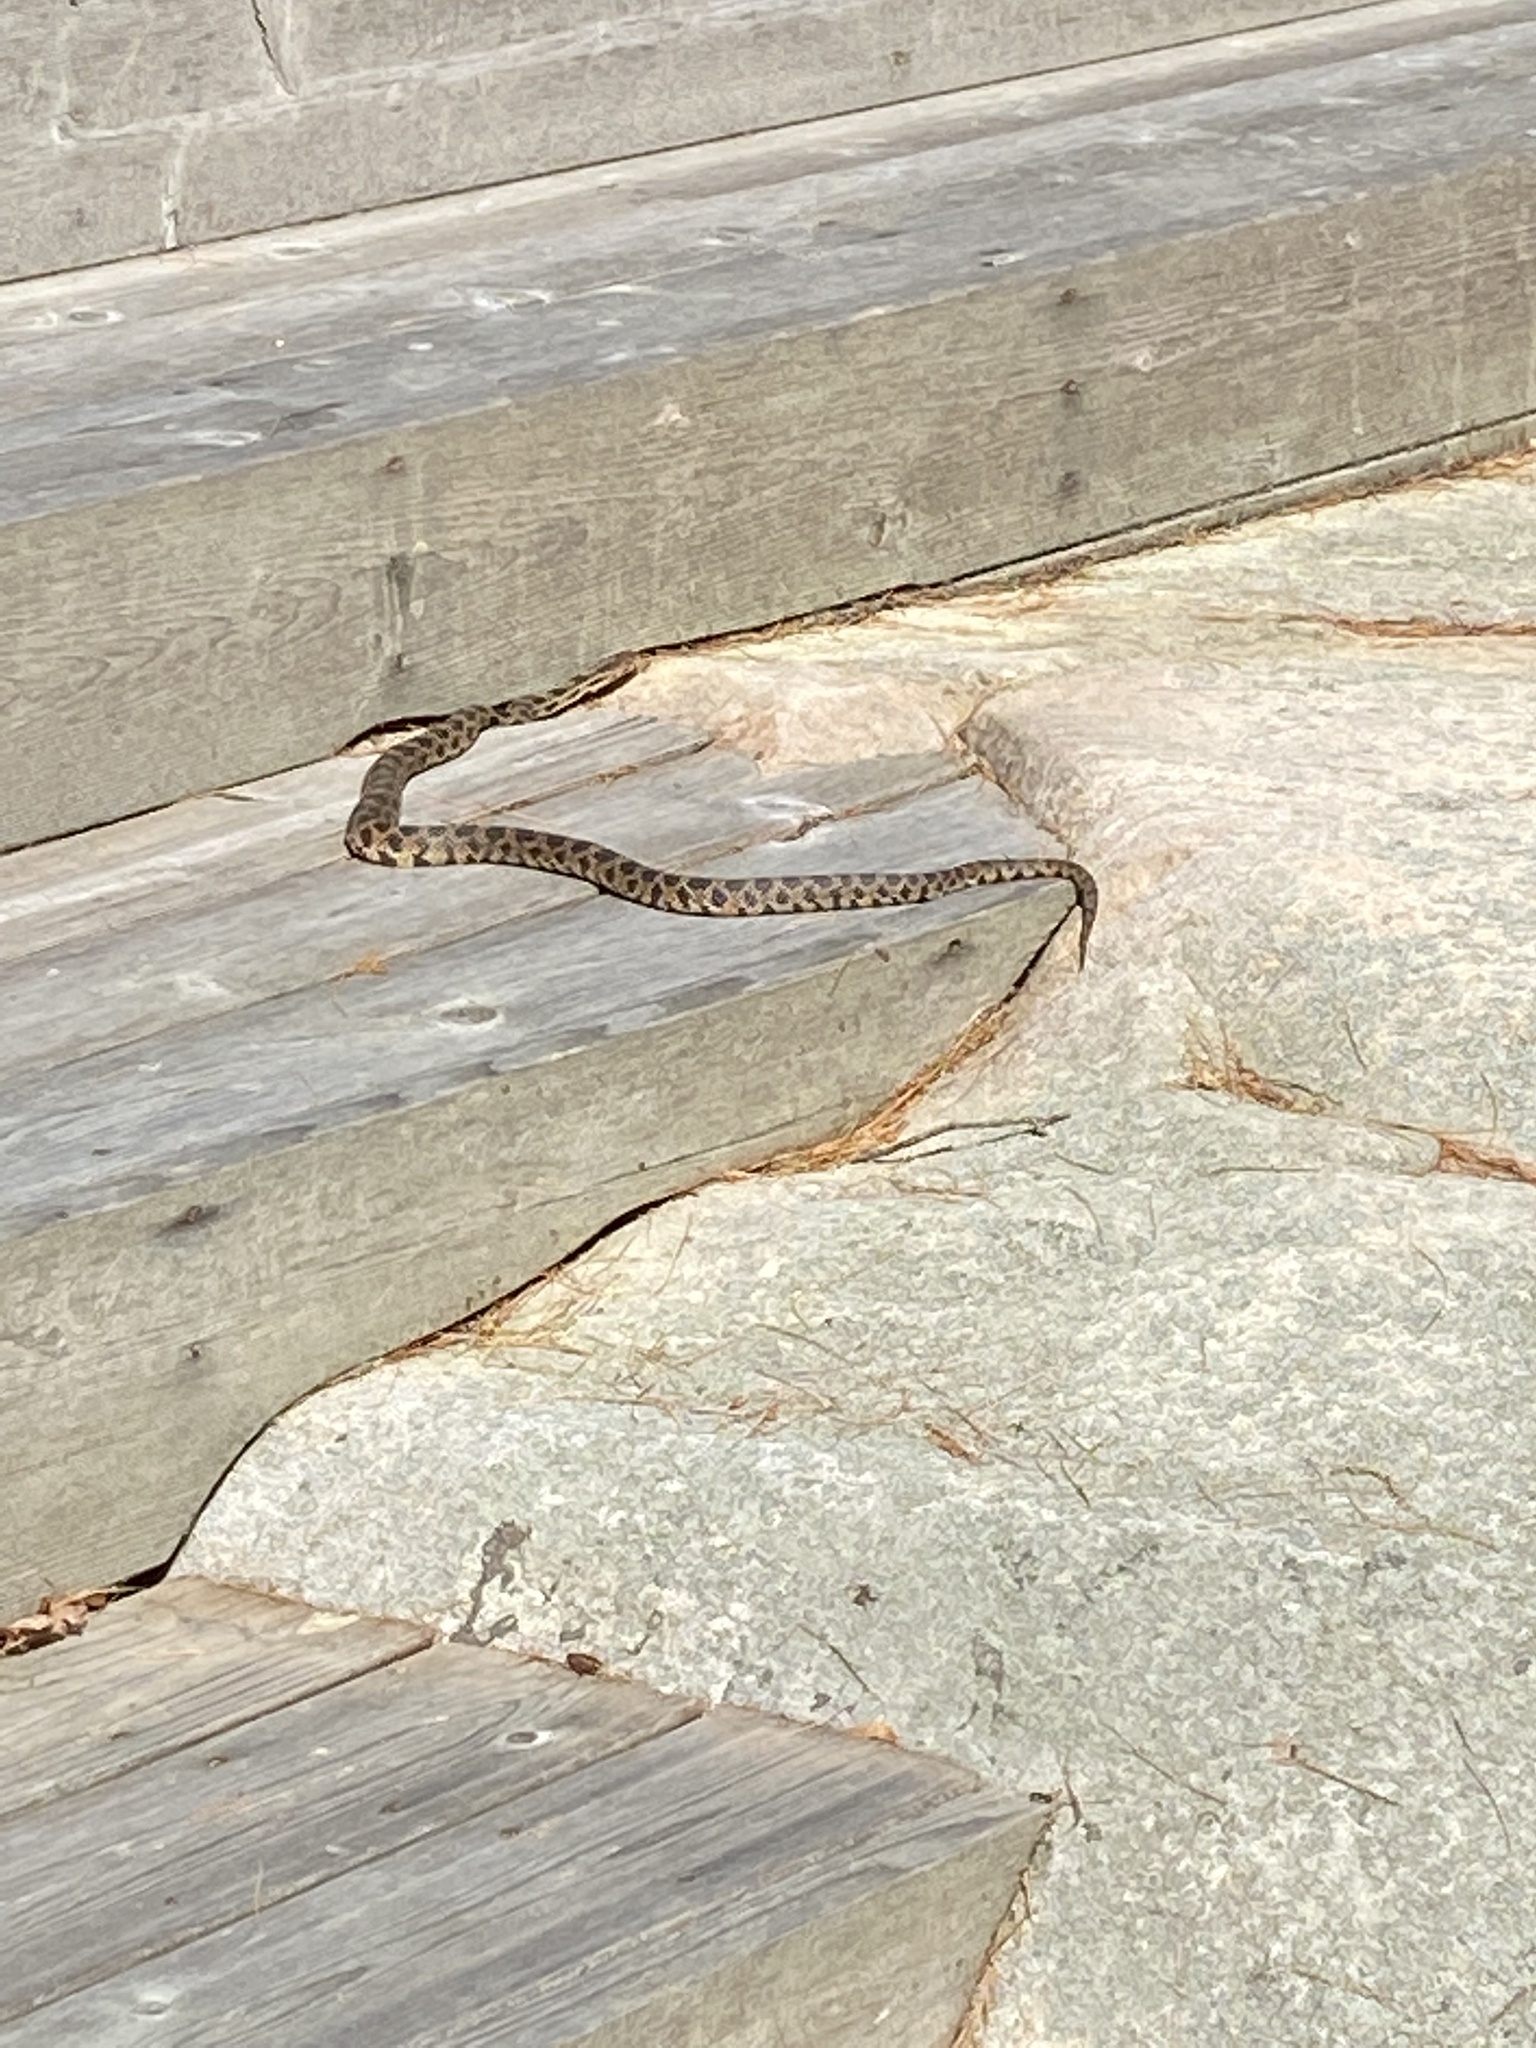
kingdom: Animalia
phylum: Chordata
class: Squamata
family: Colubridae
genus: Pantherophis
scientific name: Pantherophis vulpinus
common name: Eastern fox snake
